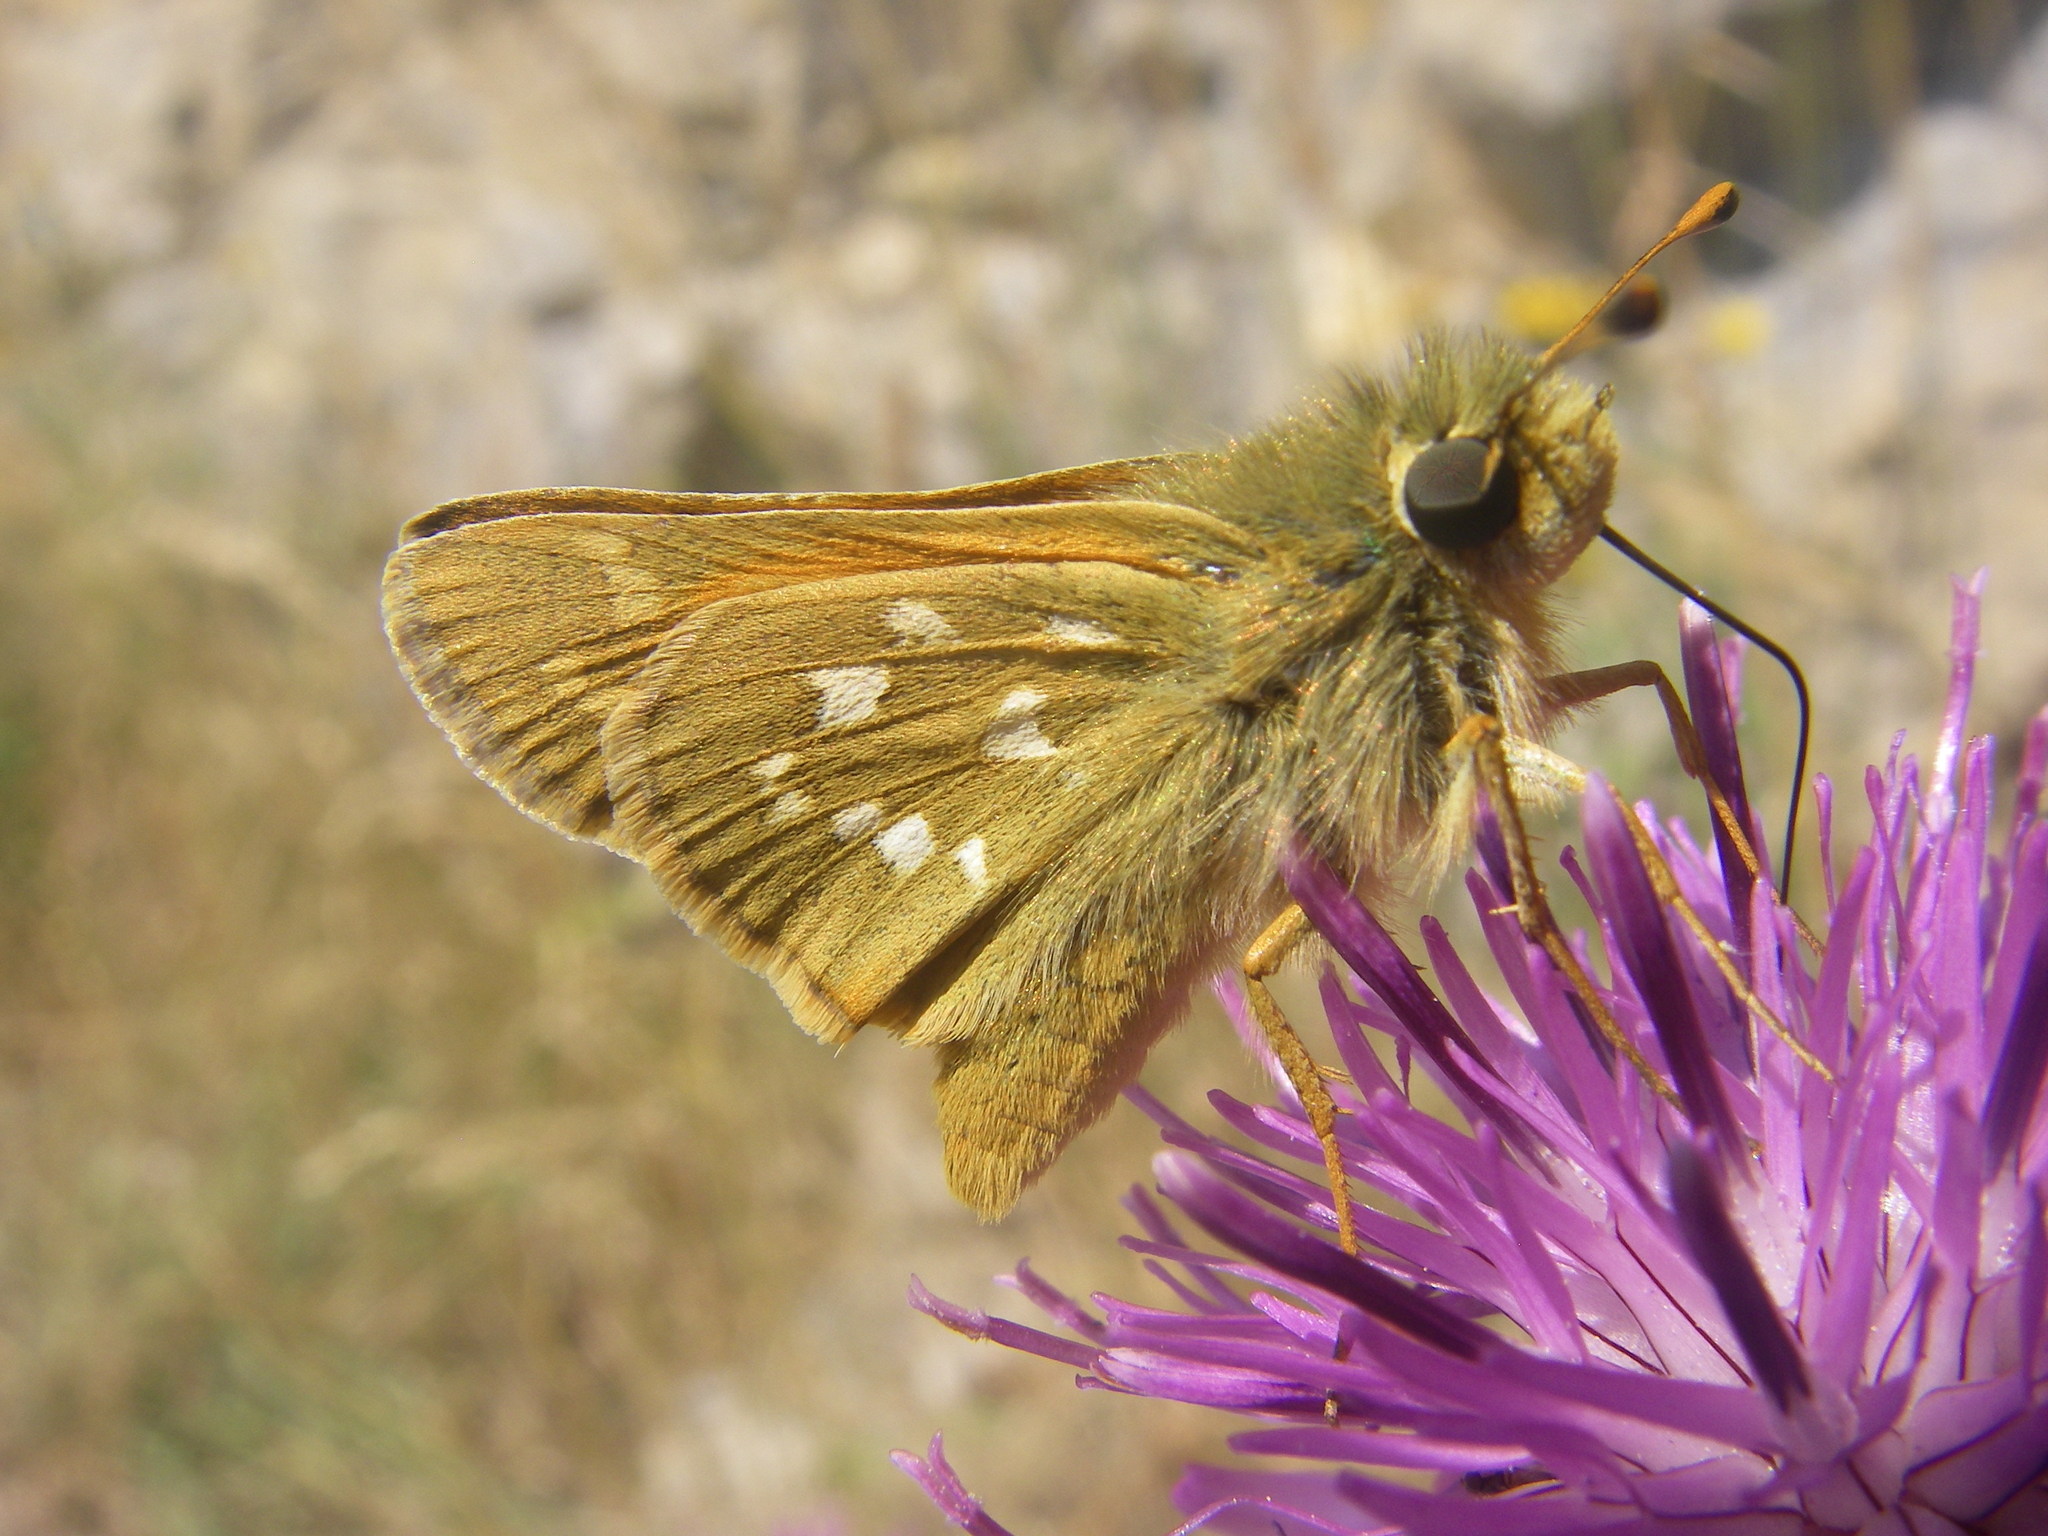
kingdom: Animalia
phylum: Arthropoda
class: Insecta
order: Lepidoptera
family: Hesperiidae
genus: Hesperia
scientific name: Hesperia comma
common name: Common branded skipper
